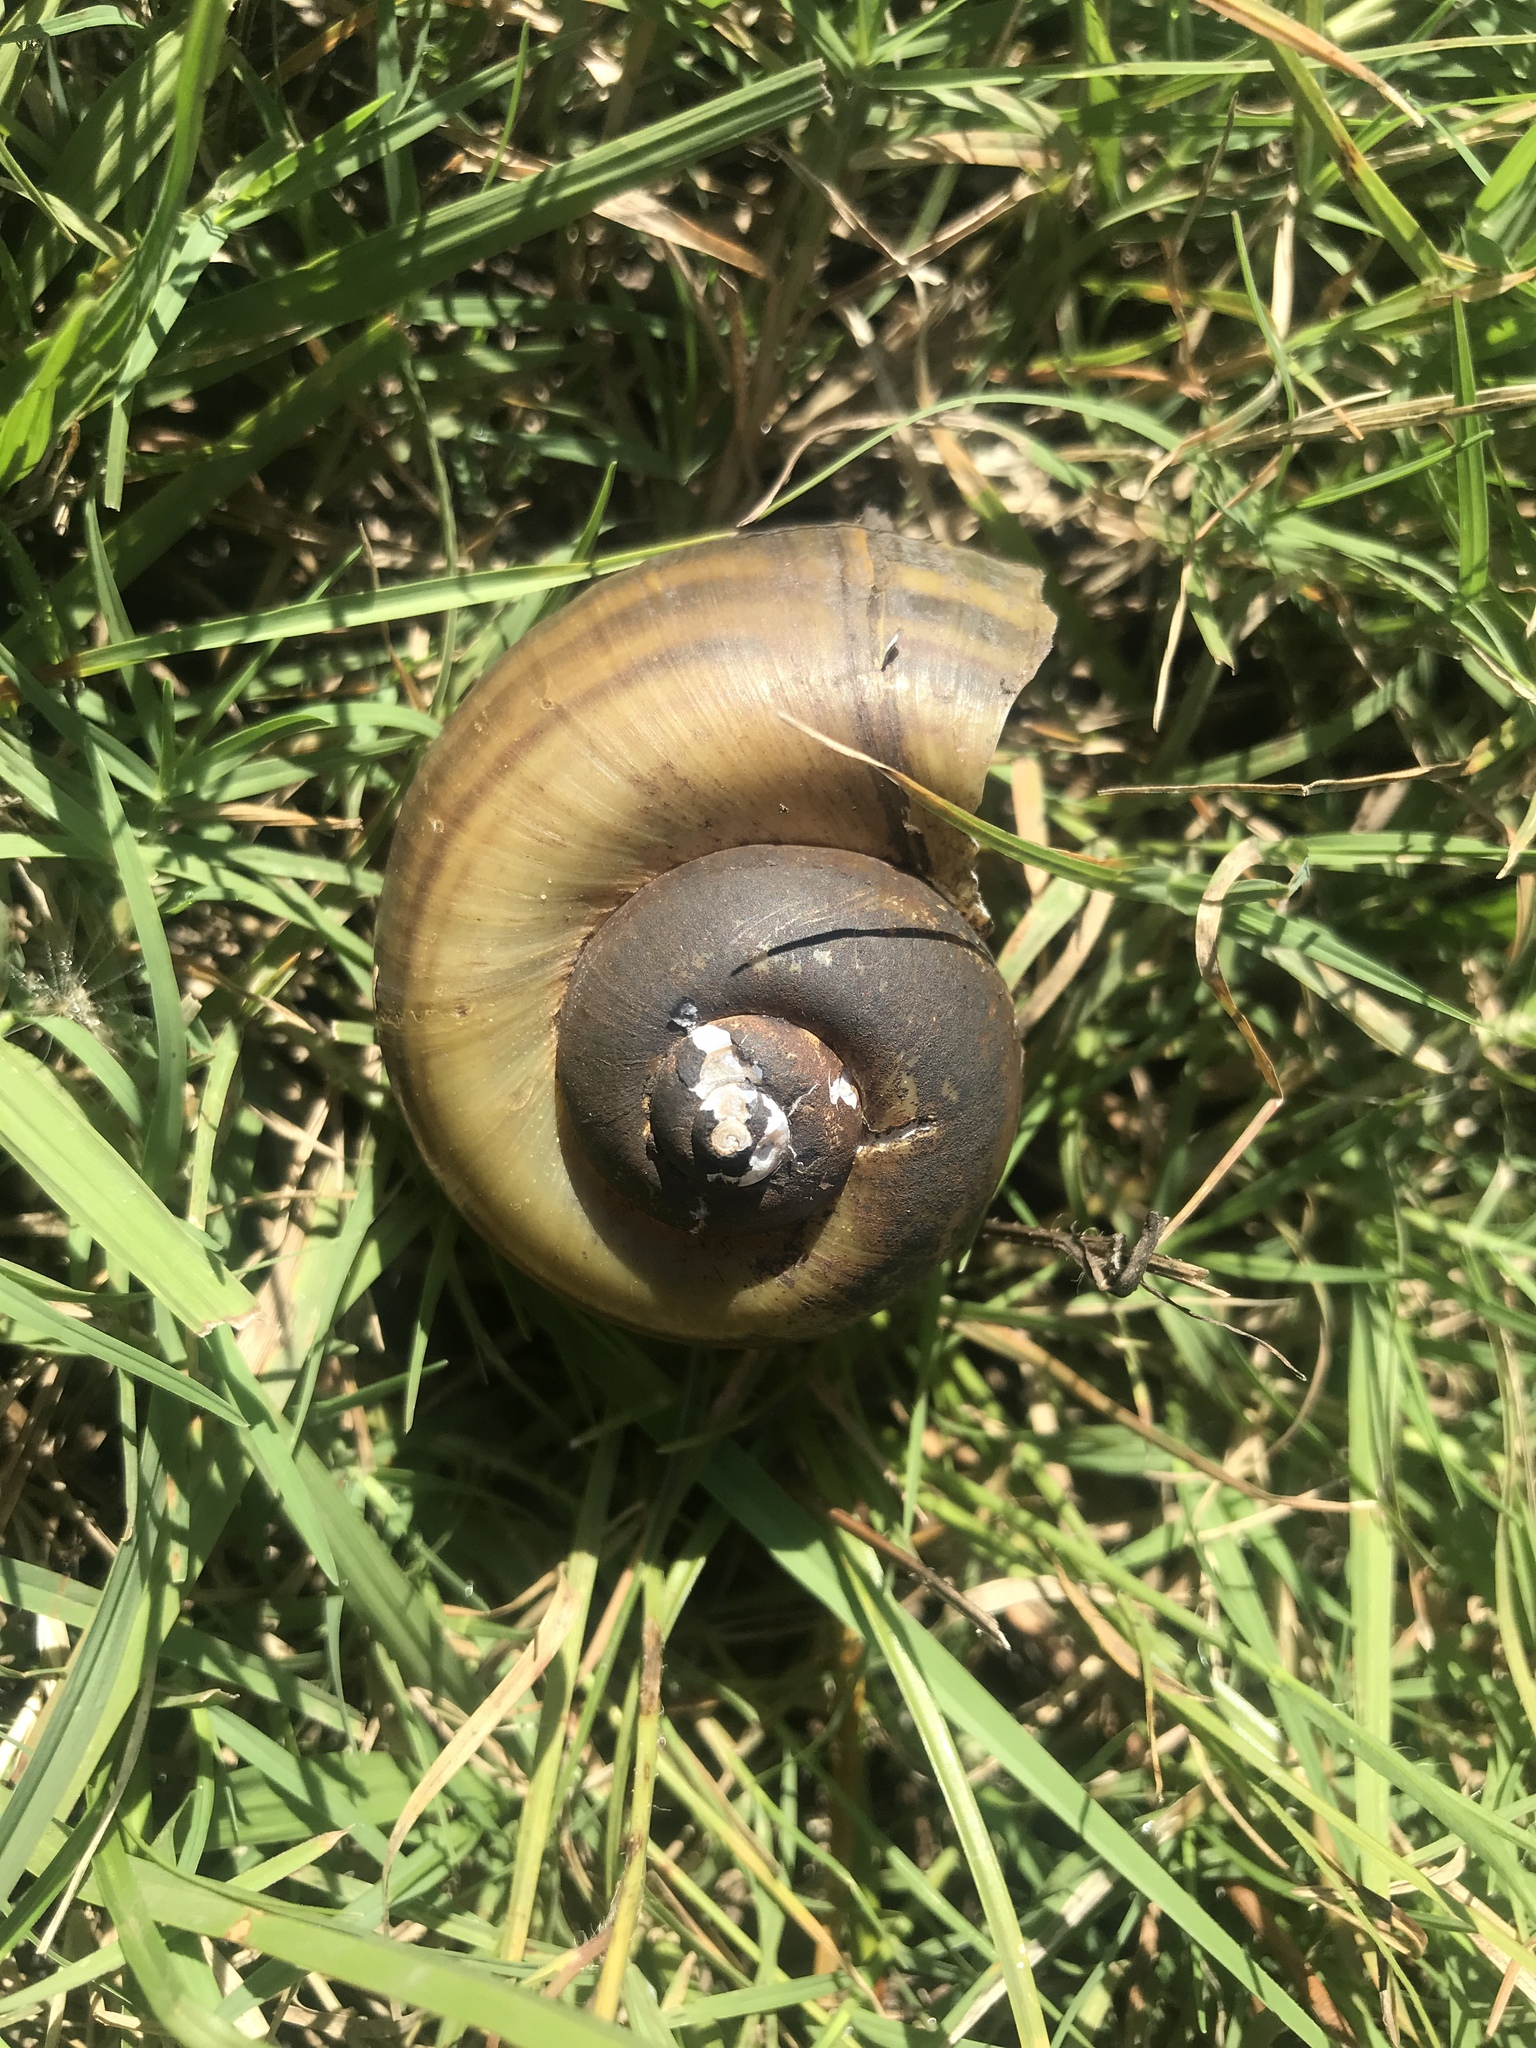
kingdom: Animalia
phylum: Mollusca
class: Gastropoda
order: Architaenioglossa
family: Ampullariidae
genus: Pomacea
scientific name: Pomacea canaliculata
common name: Channeled applesnail
